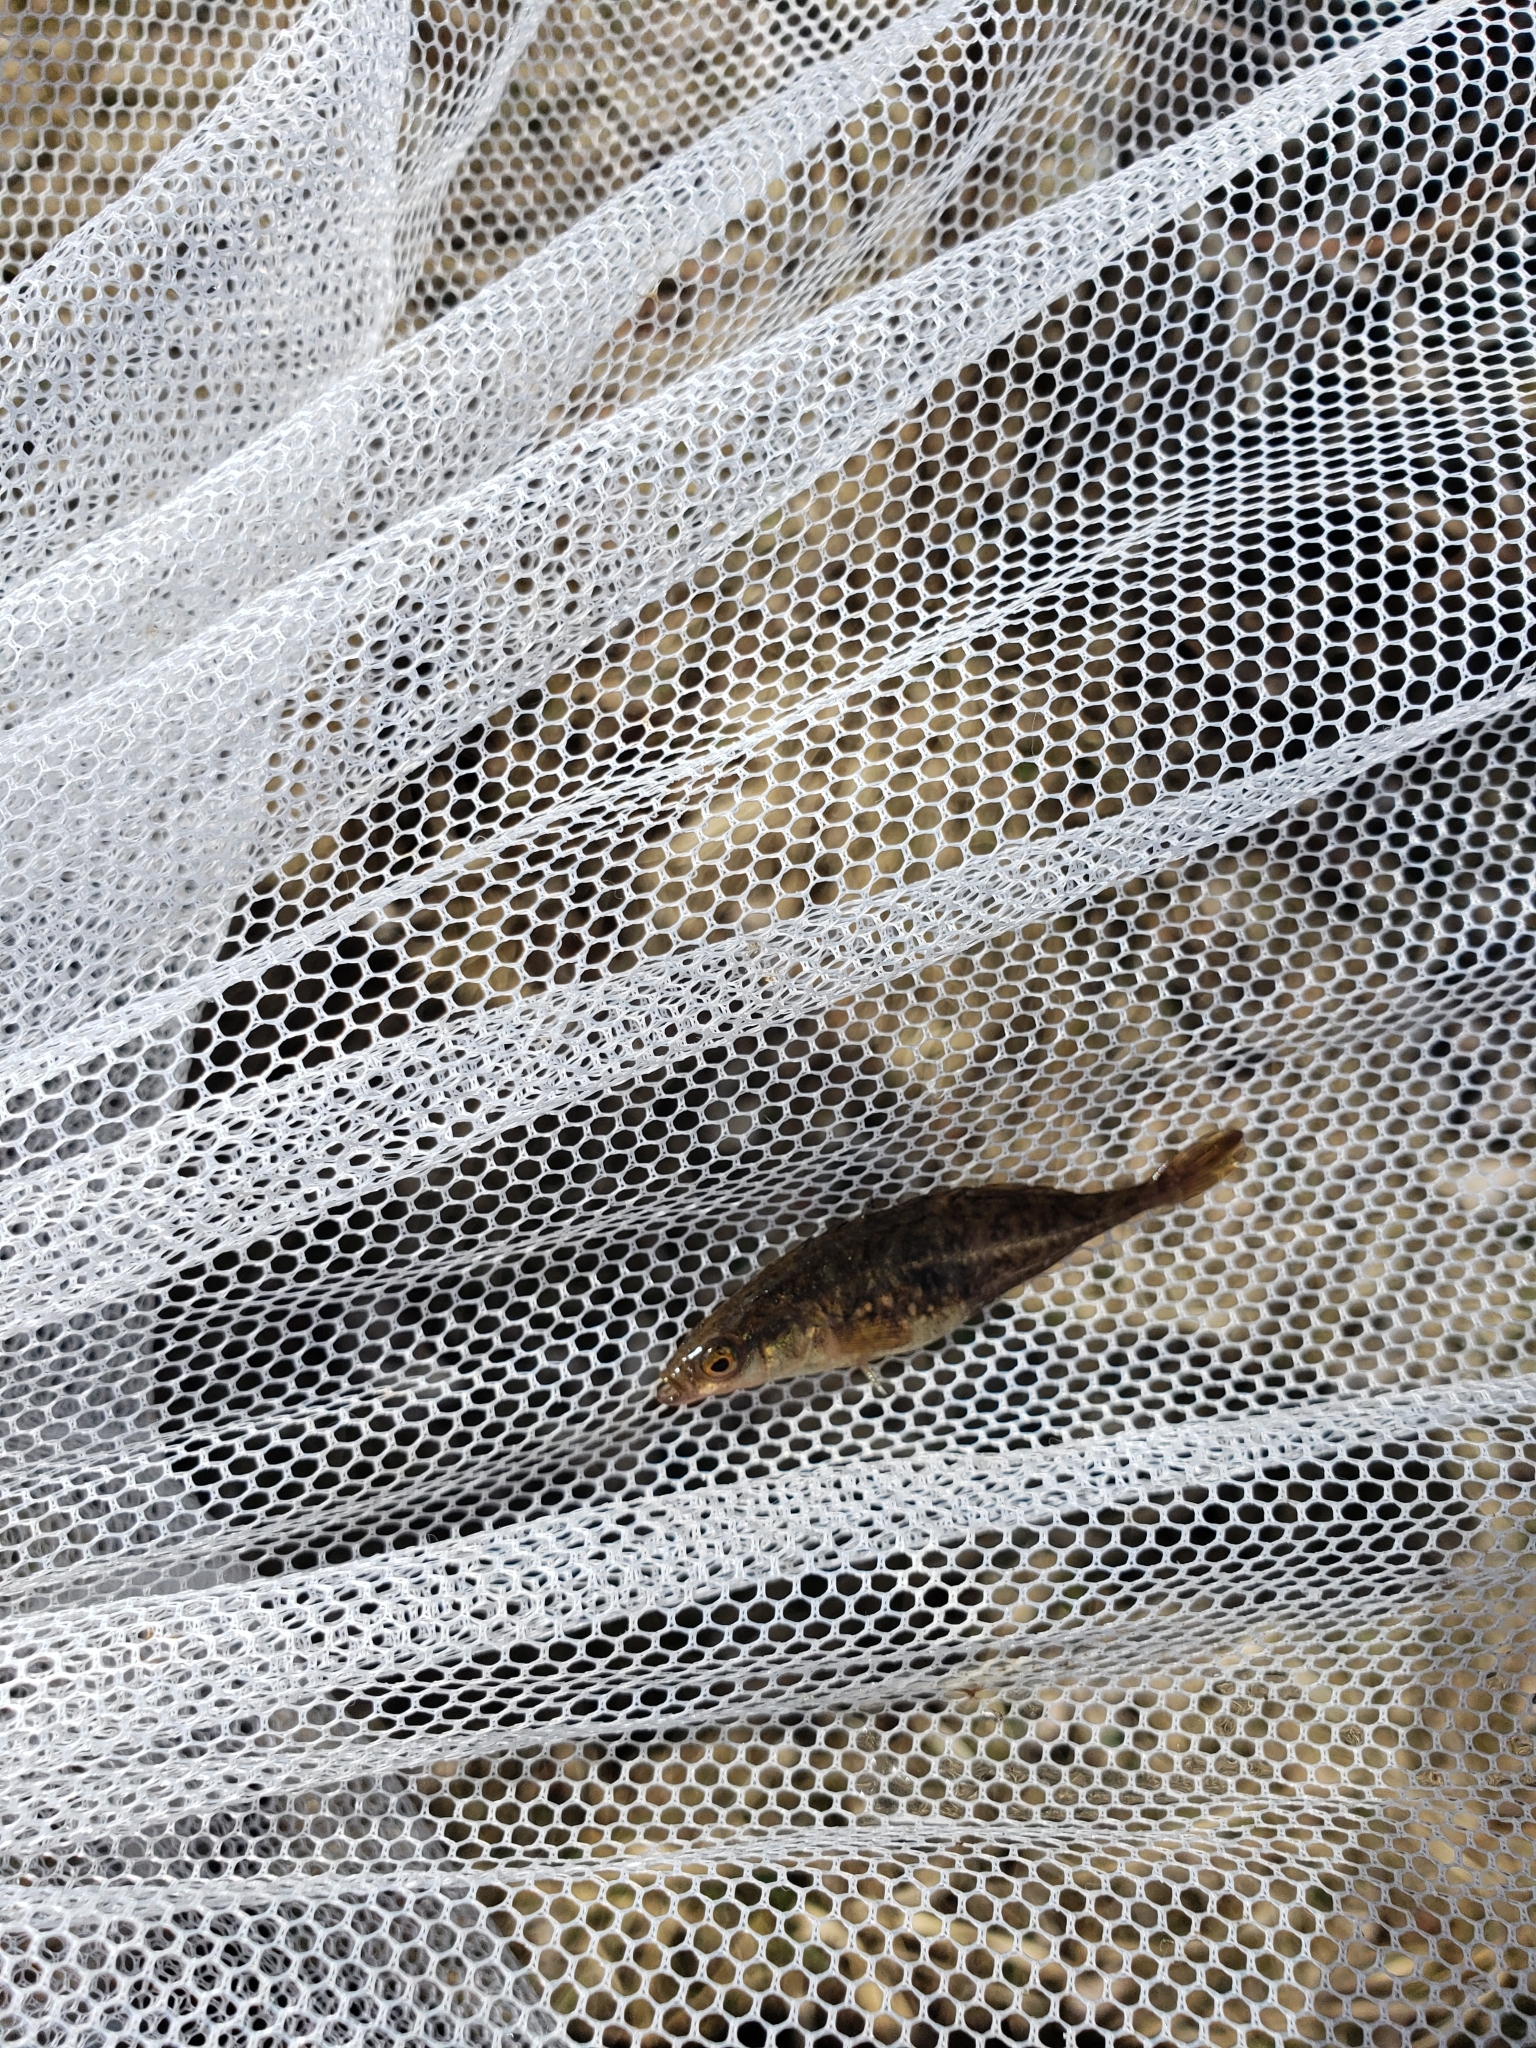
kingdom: Animalia
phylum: Chordata
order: Gasterosteiformes
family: Gasterosteidae
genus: Culaea
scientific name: Culaea inconstans
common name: Brook stickleback
